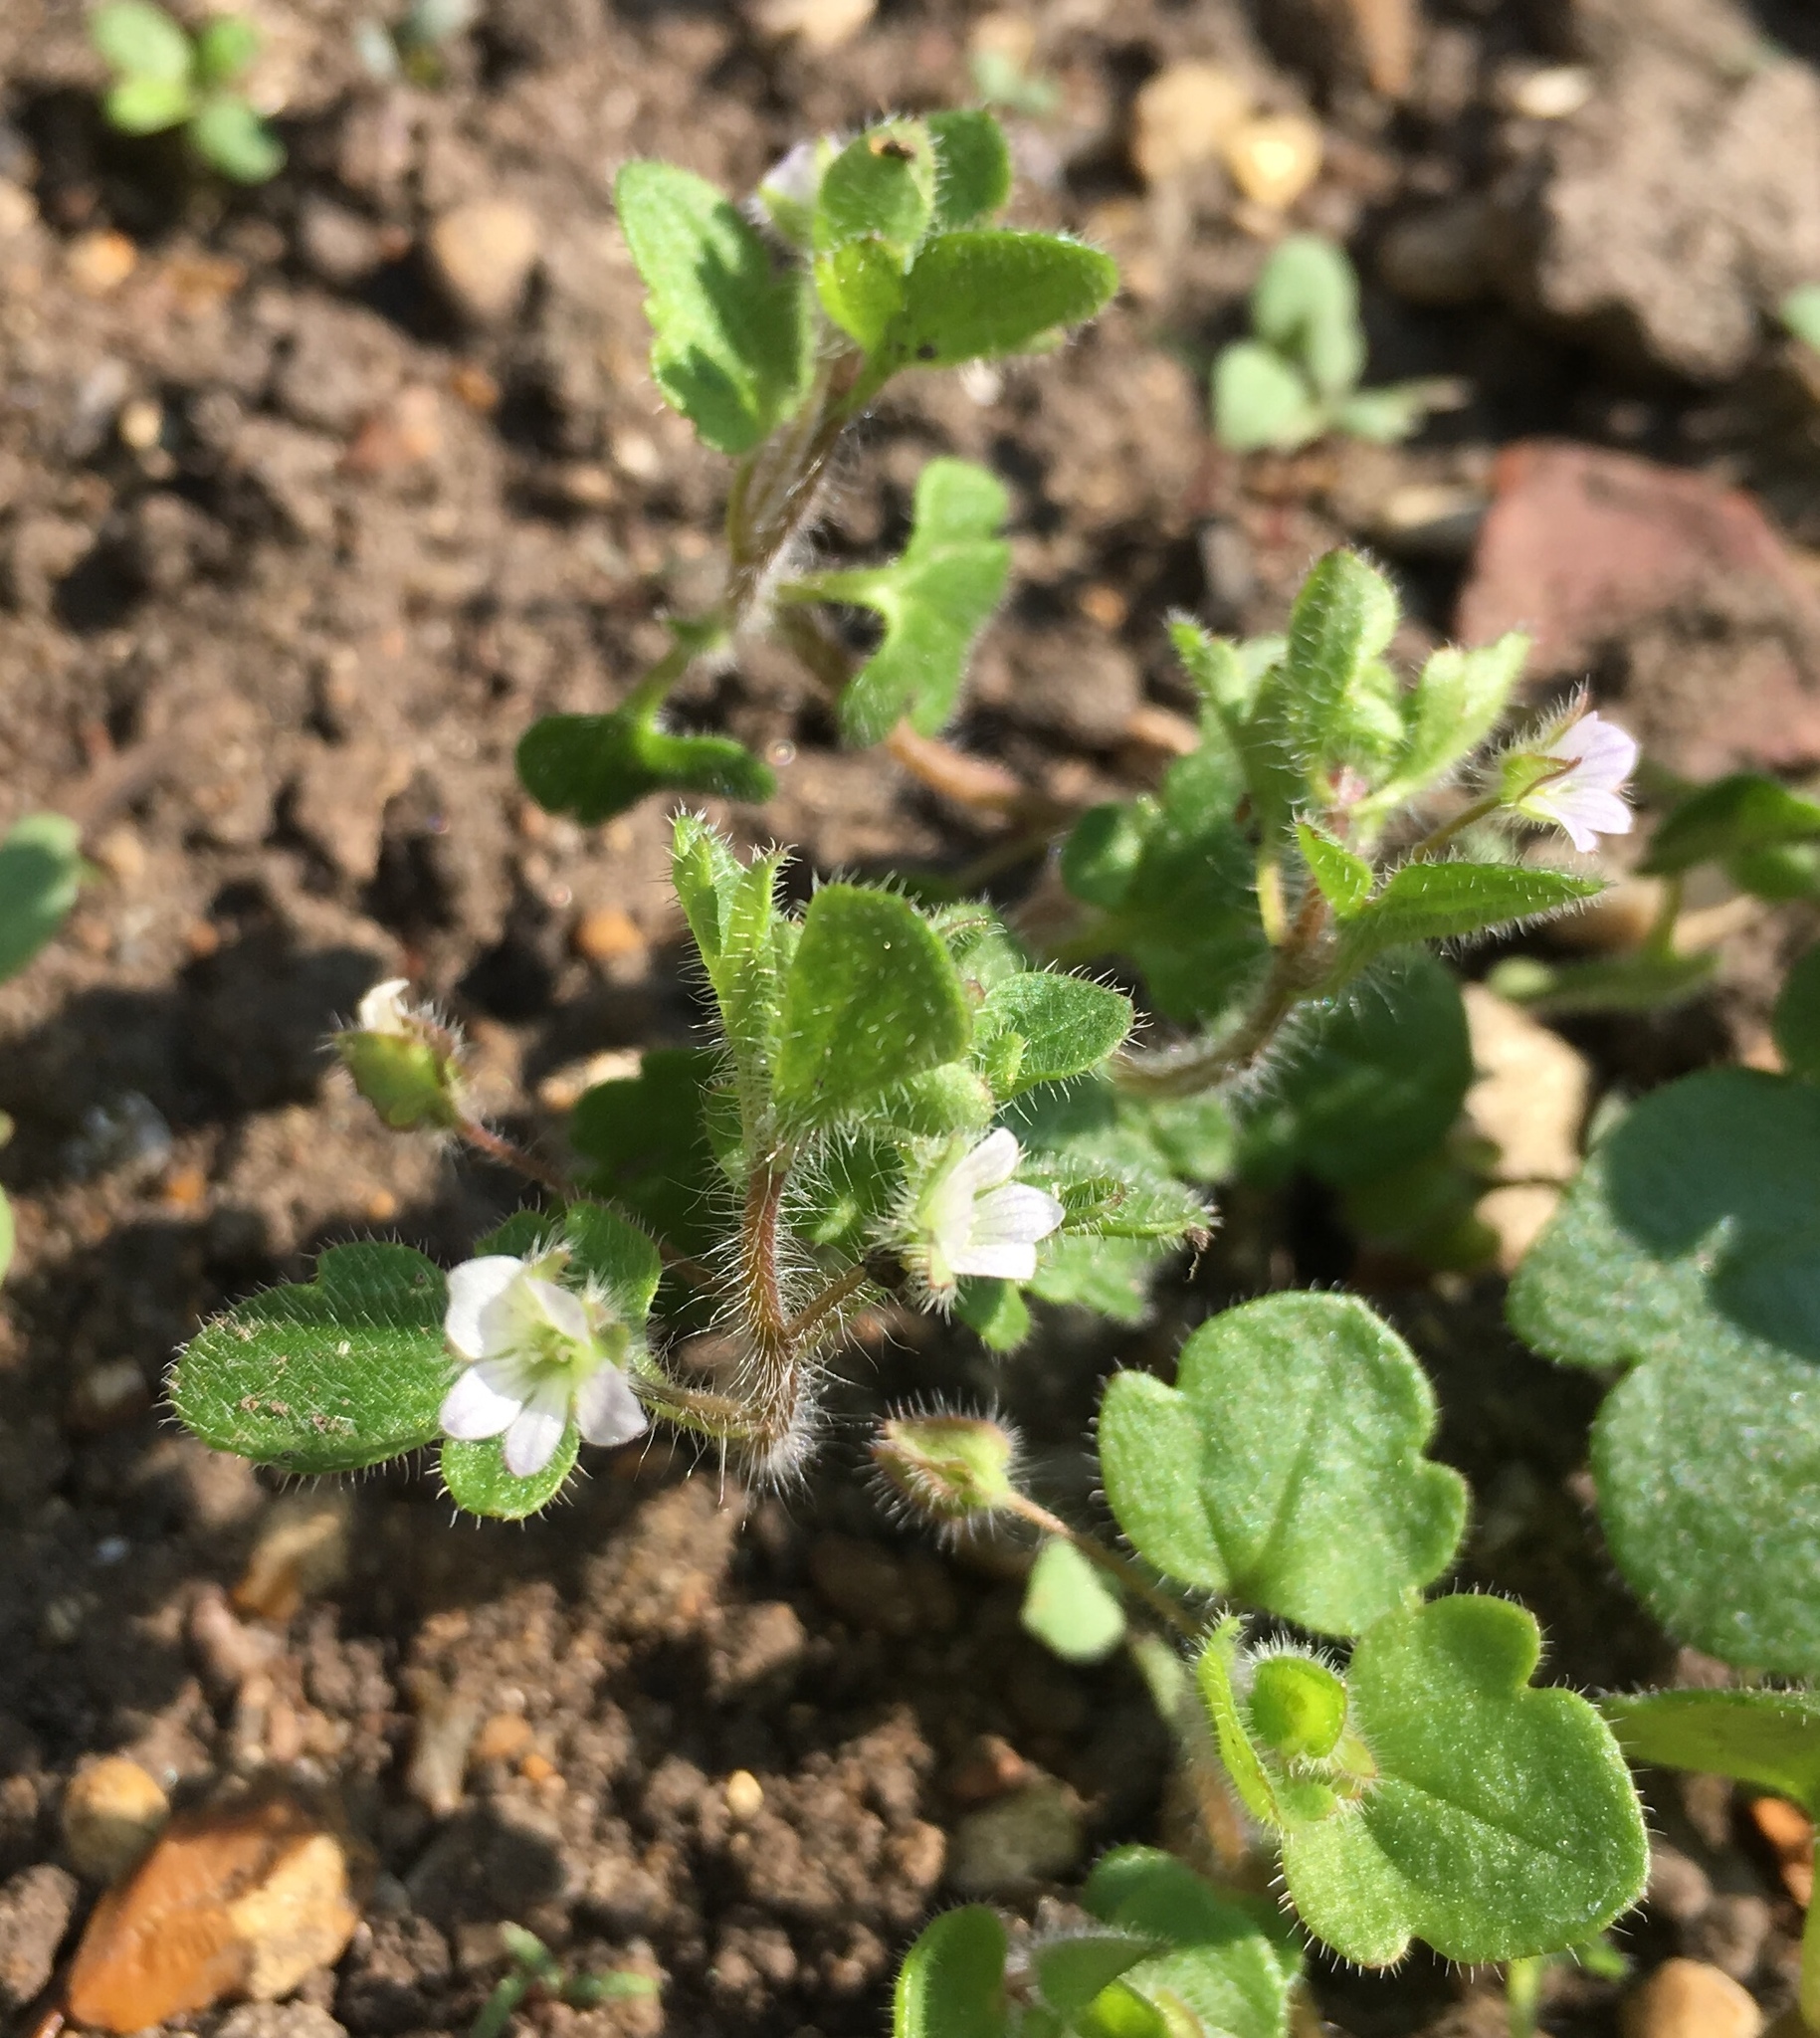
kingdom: Plantae
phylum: Tracheophyta
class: Magnoliopsida
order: Lamiales
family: Plantaginaceae
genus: Veronica
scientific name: Veronica hederifolia
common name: Ivy-leaved speedwell
